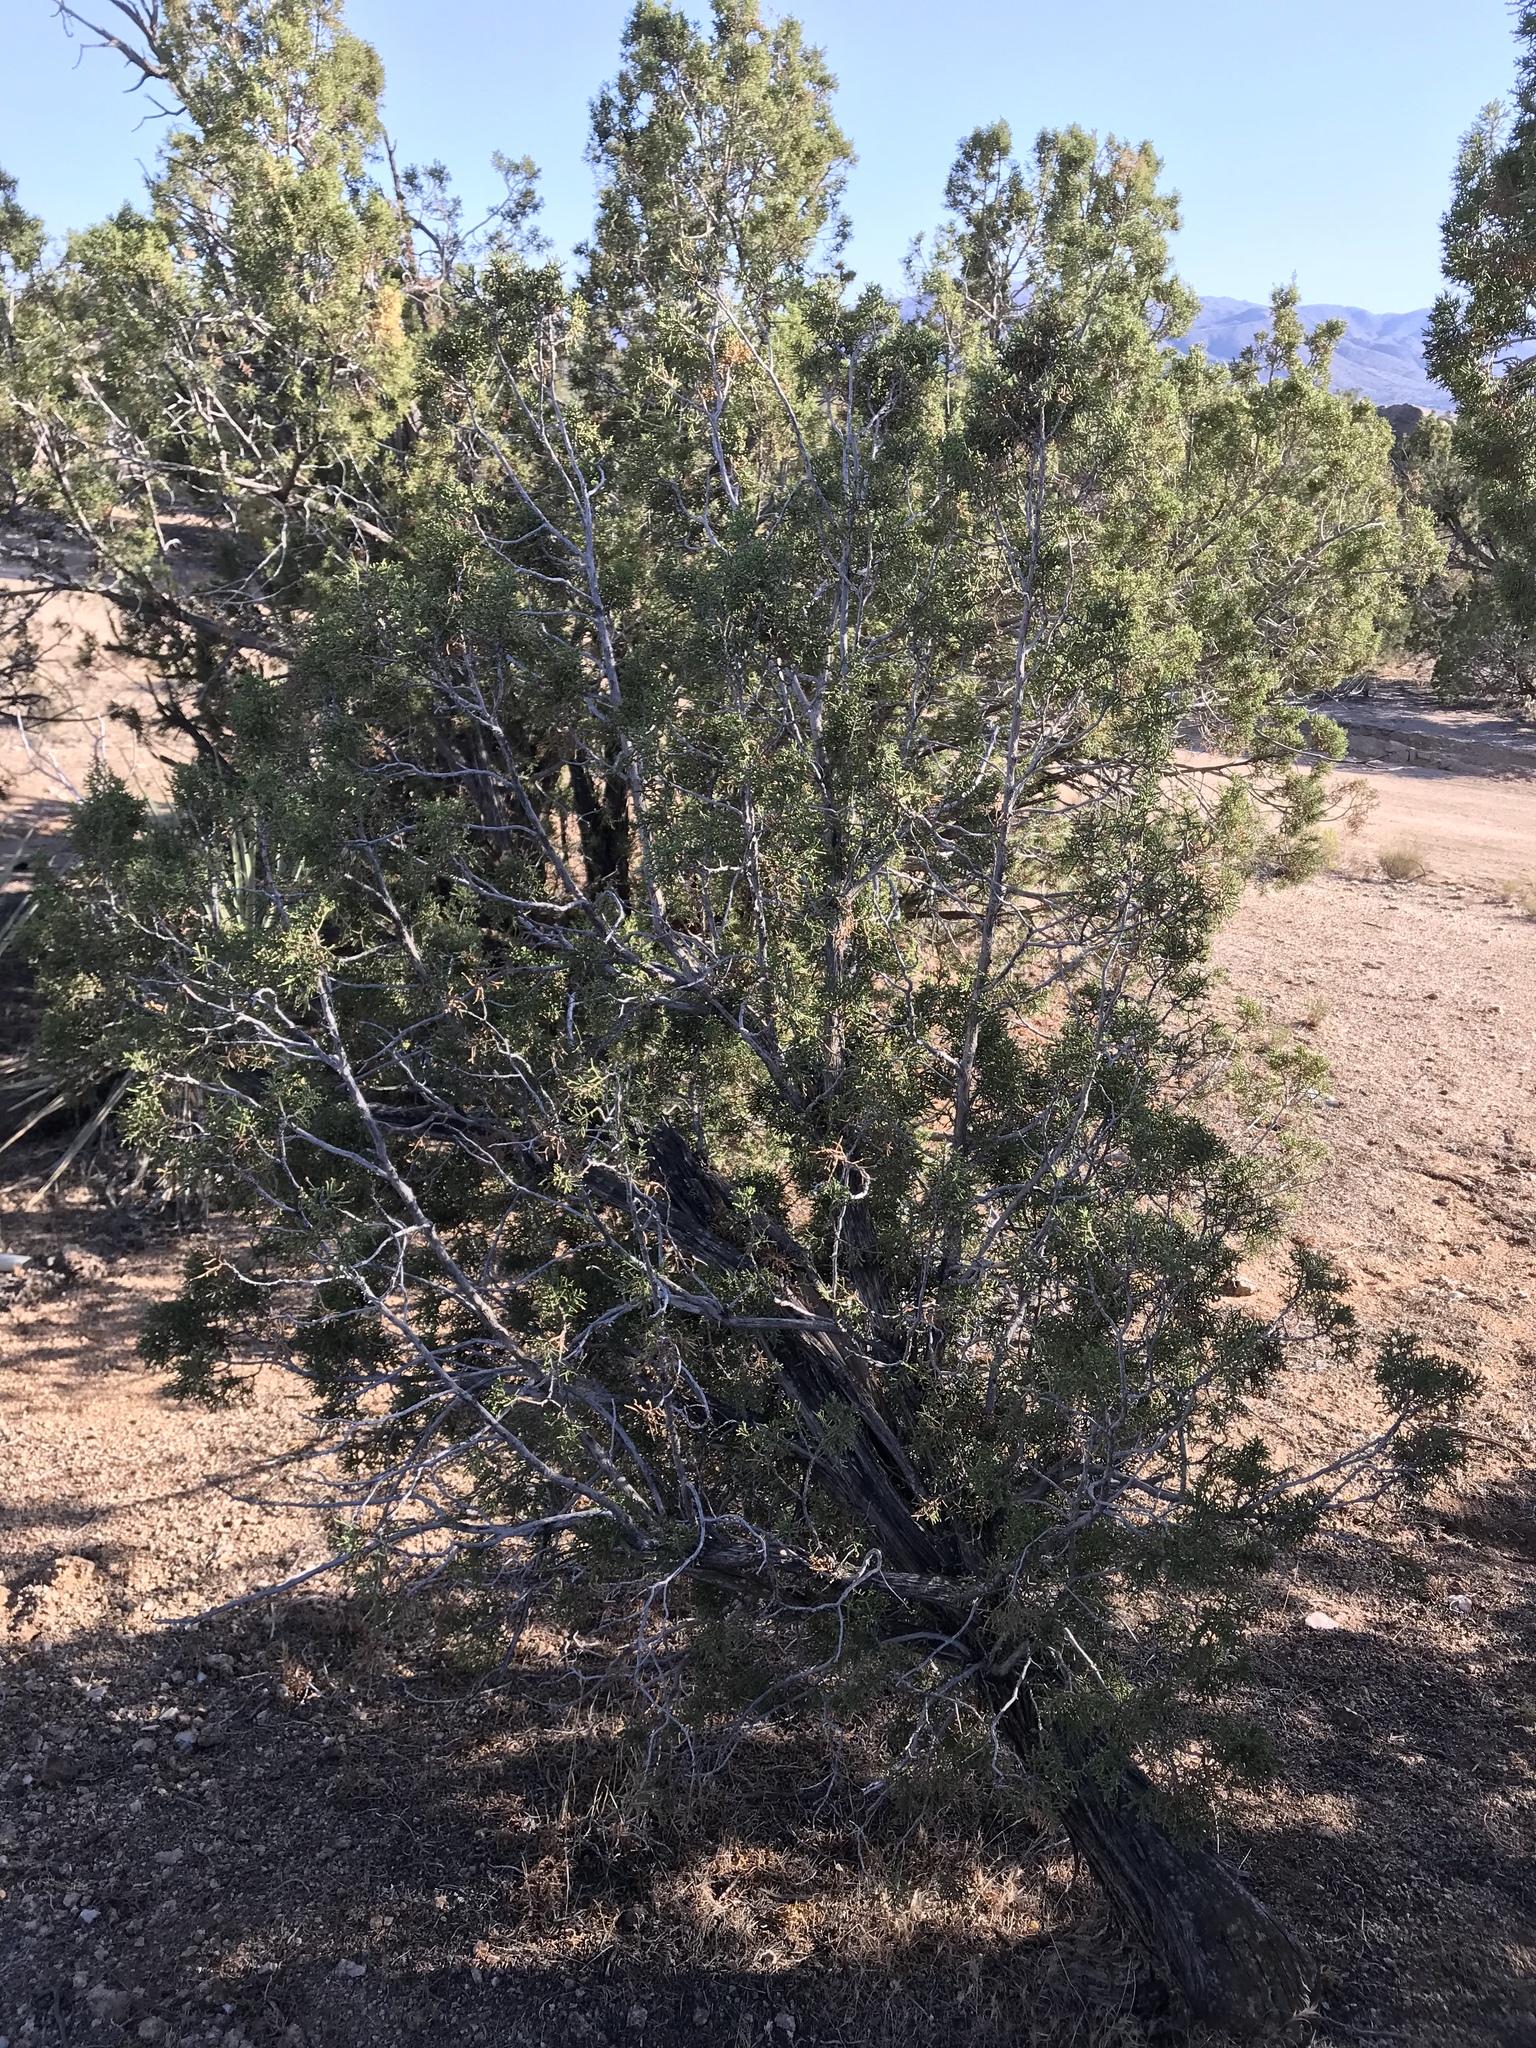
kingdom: Plantae
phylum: Tracheophyta
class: Pinopsida
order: Pinales
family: Cupressaceae
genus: Juniperus
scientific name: Juniperus californica
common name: California juniper
